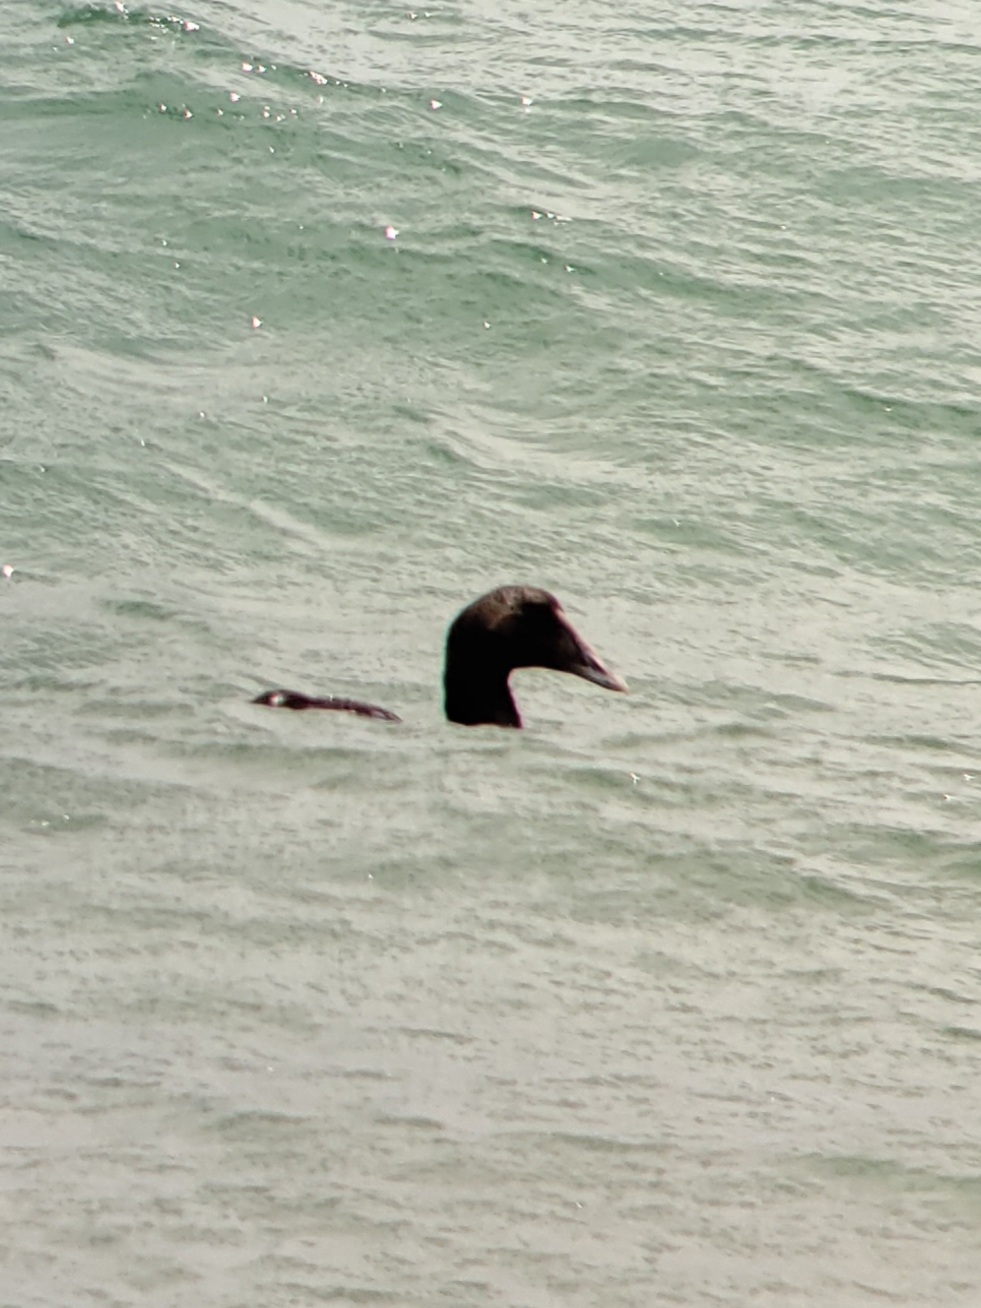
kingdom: Animalia
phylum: Chordata
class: Aves
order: Anseriformes
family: Anatidae
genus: Somateria
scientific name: Somateria mollissima
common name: Common eider
